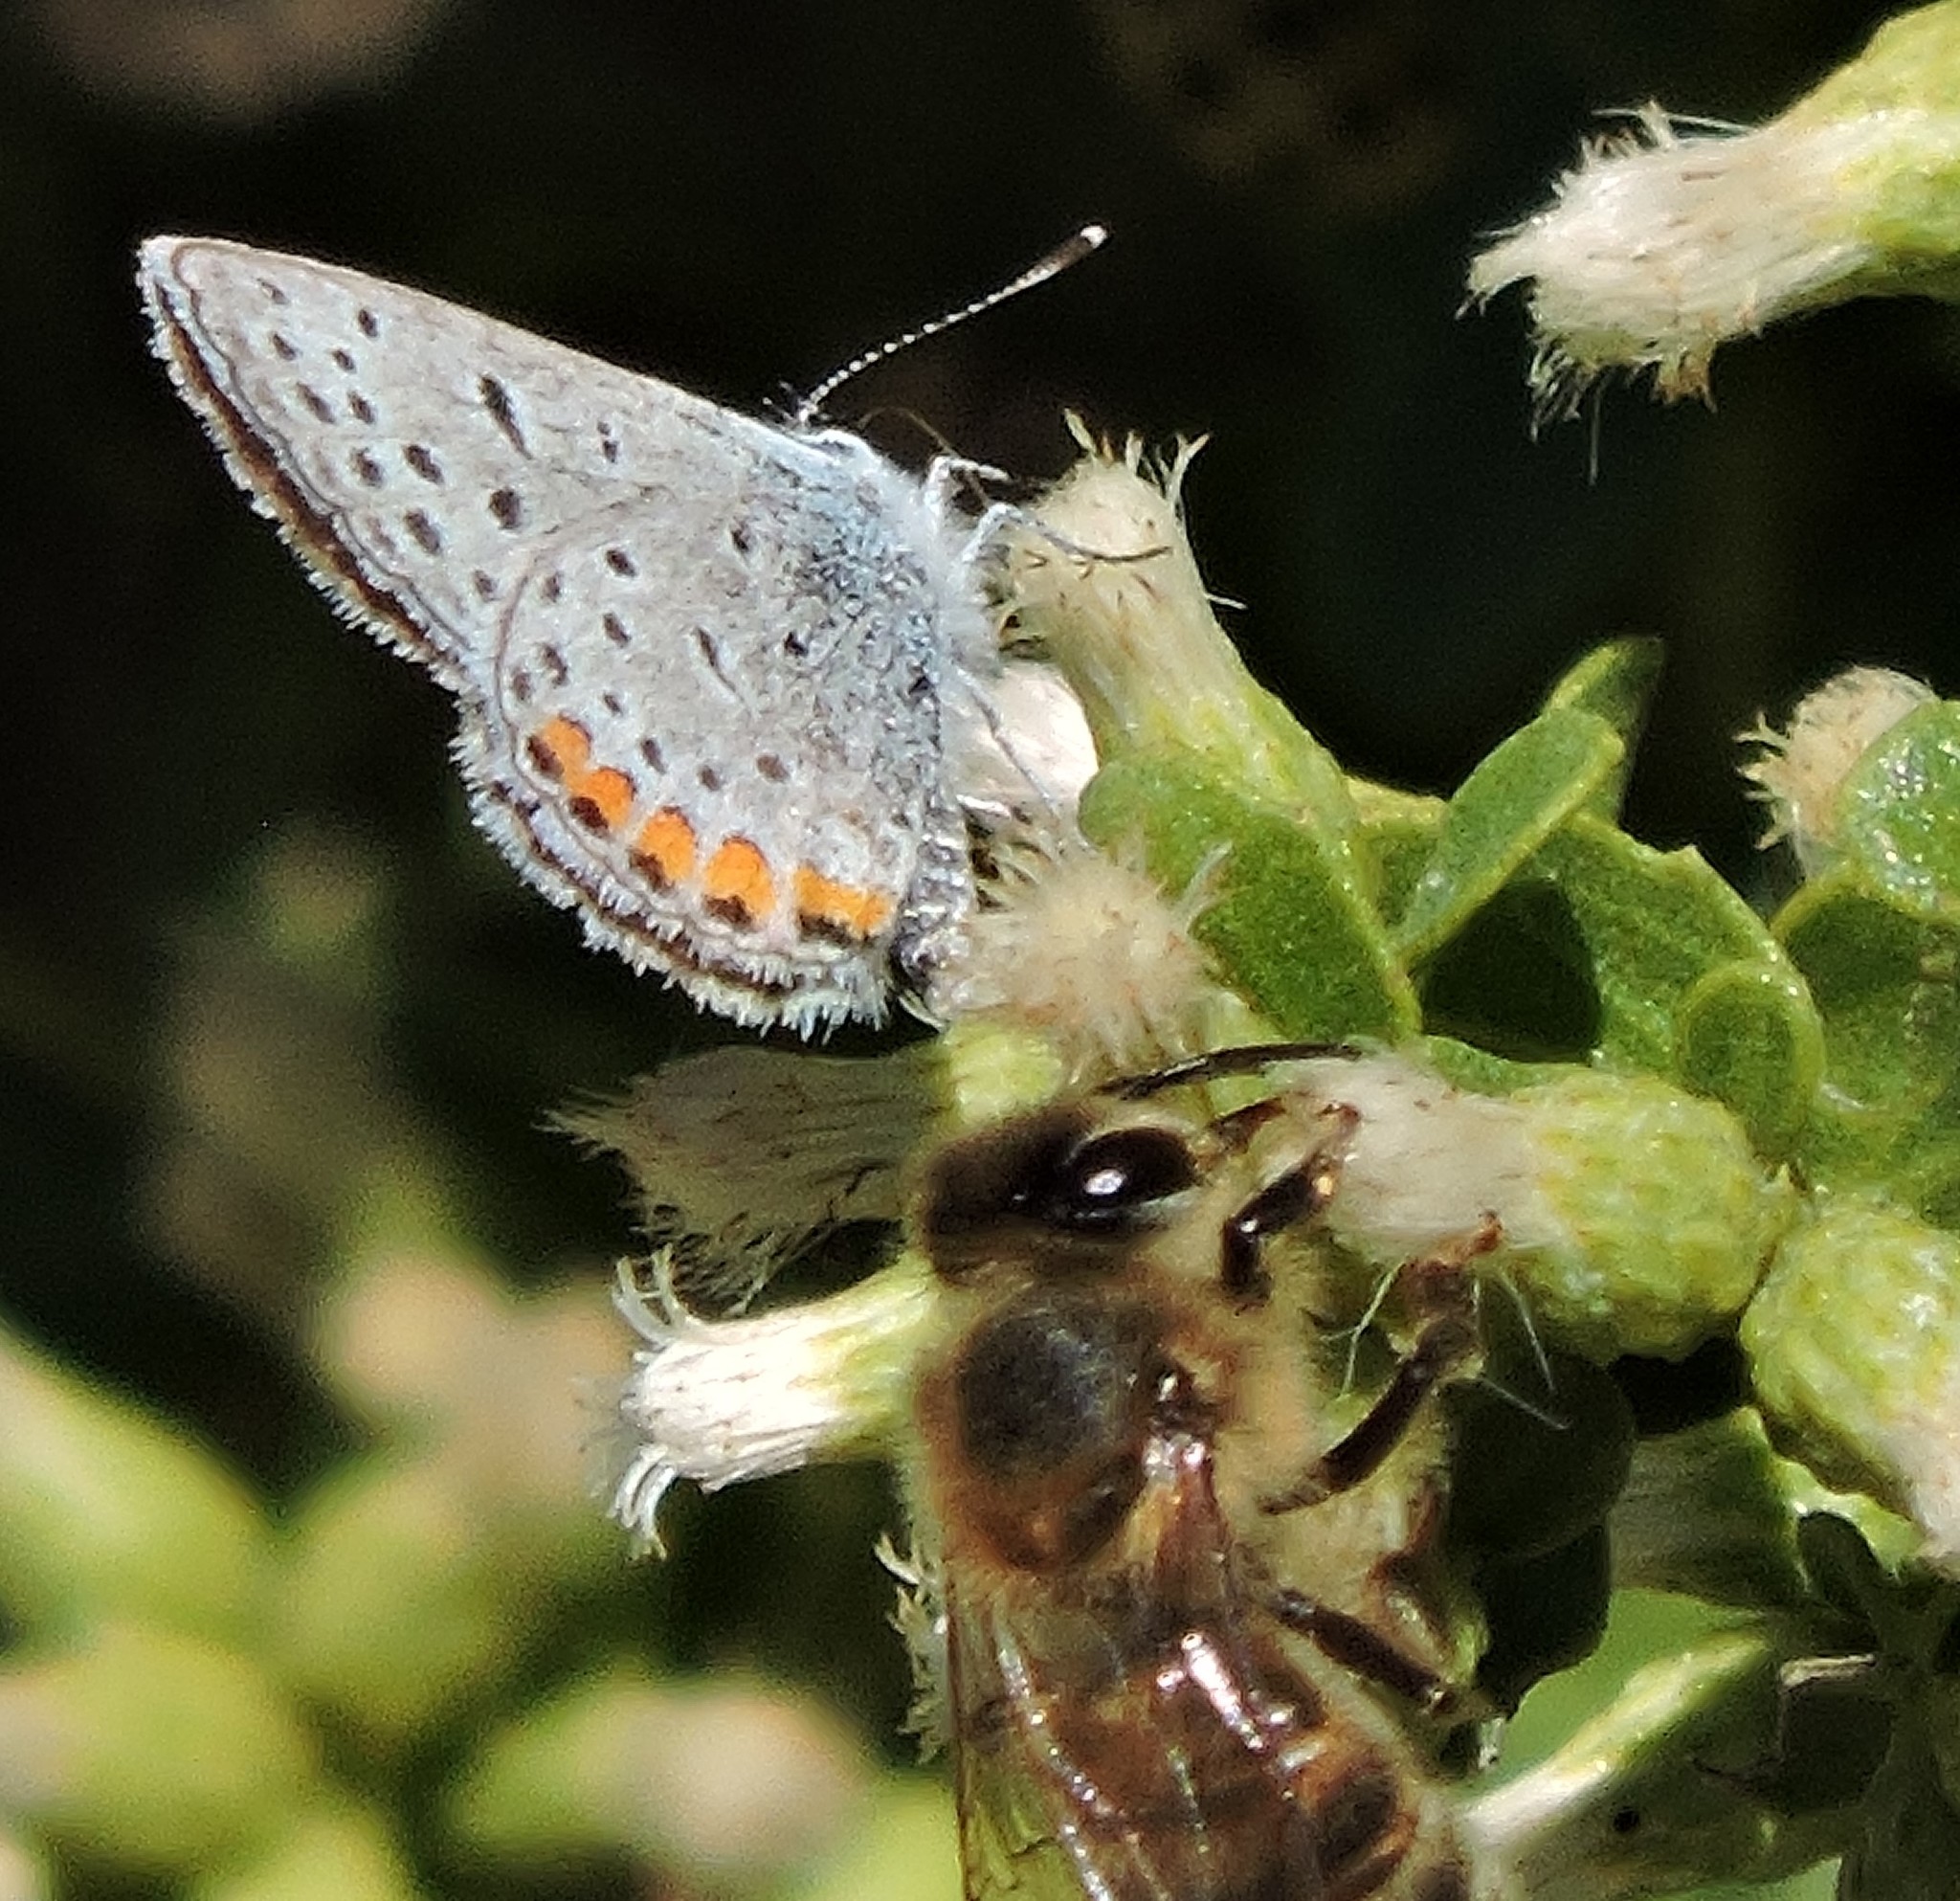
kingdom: Animalia
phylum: Arthropoda
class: Insecta
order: Lepidoptera
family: Lycaenidae
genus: Icaricia
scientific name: Icaricia acmon
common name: Acmon blue
